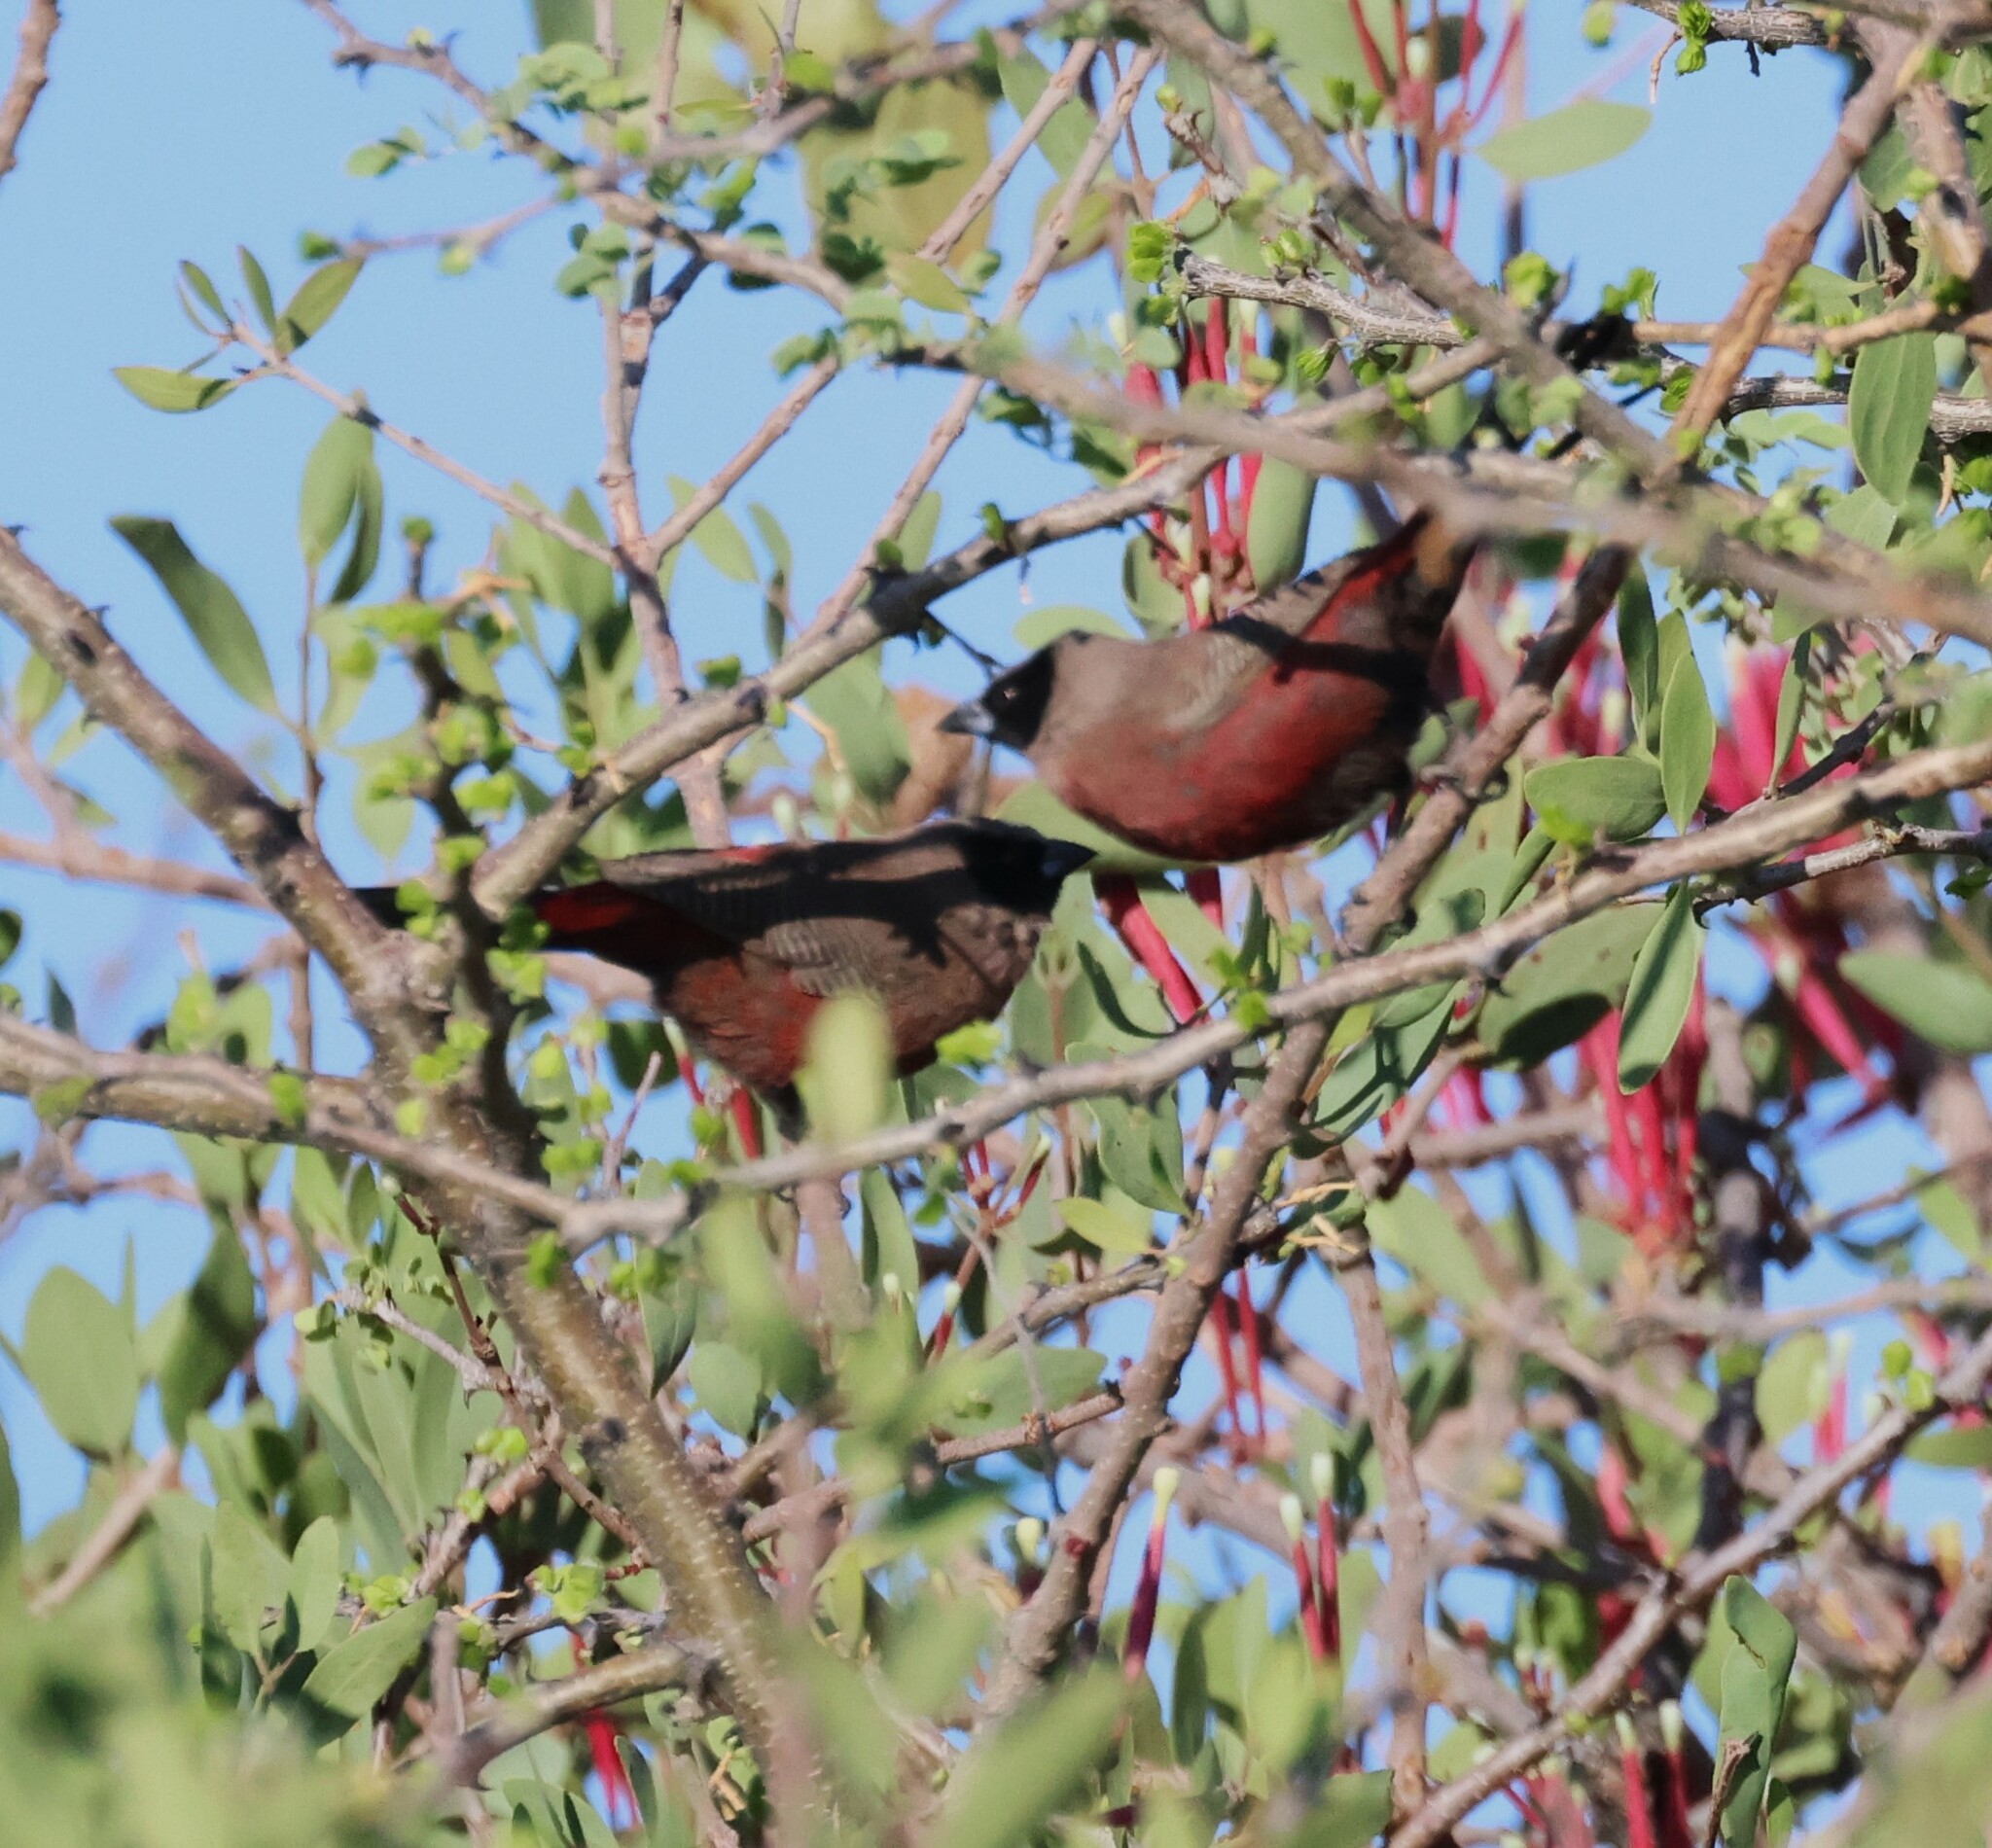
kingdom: Animalia
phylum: Chordata
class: Aves
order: Passeriformes
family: Estrildidae
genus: Estrilda
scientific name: Estrilda erythronotos
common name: Black-faced waxbill
